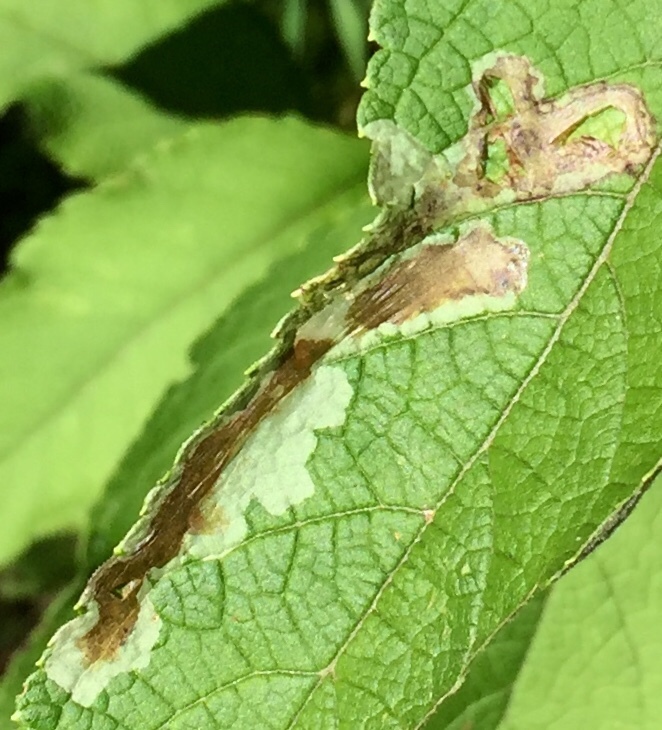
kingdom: Animalia
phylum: Arthropoda
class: Insecta
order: Diptera
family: Agromyzidae
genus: Calycomyza
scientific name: Calycomyza flavinotum
